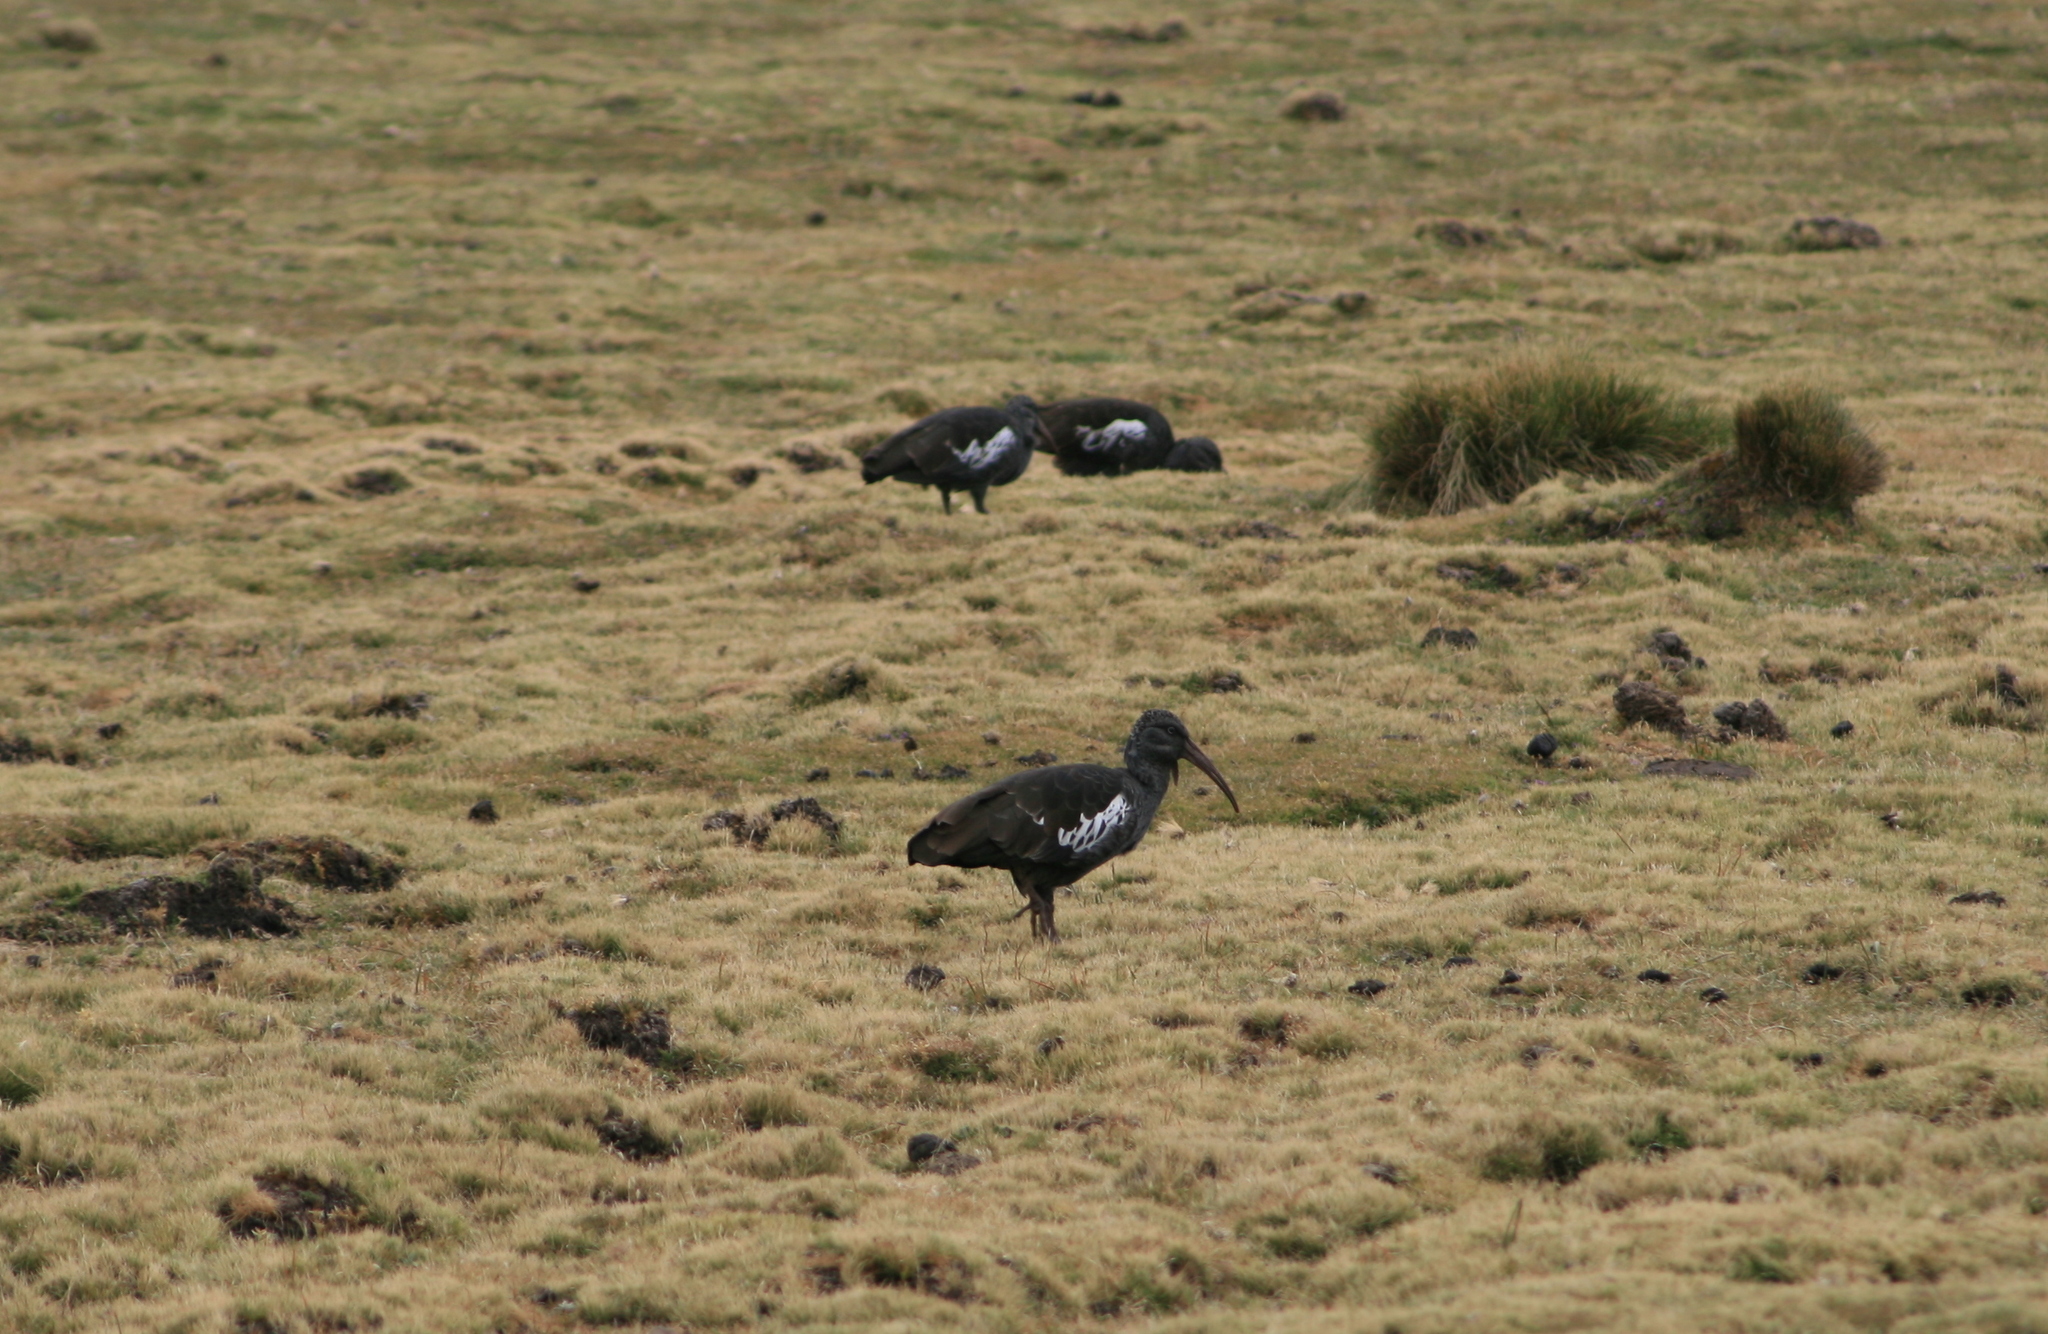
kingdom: Animalia
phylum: Chordata
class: Aves
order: Pelecaniformes
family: Threskiornithidae
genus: Bostrychia
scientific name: Bostrychia carunculata
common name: Wattled ibis
